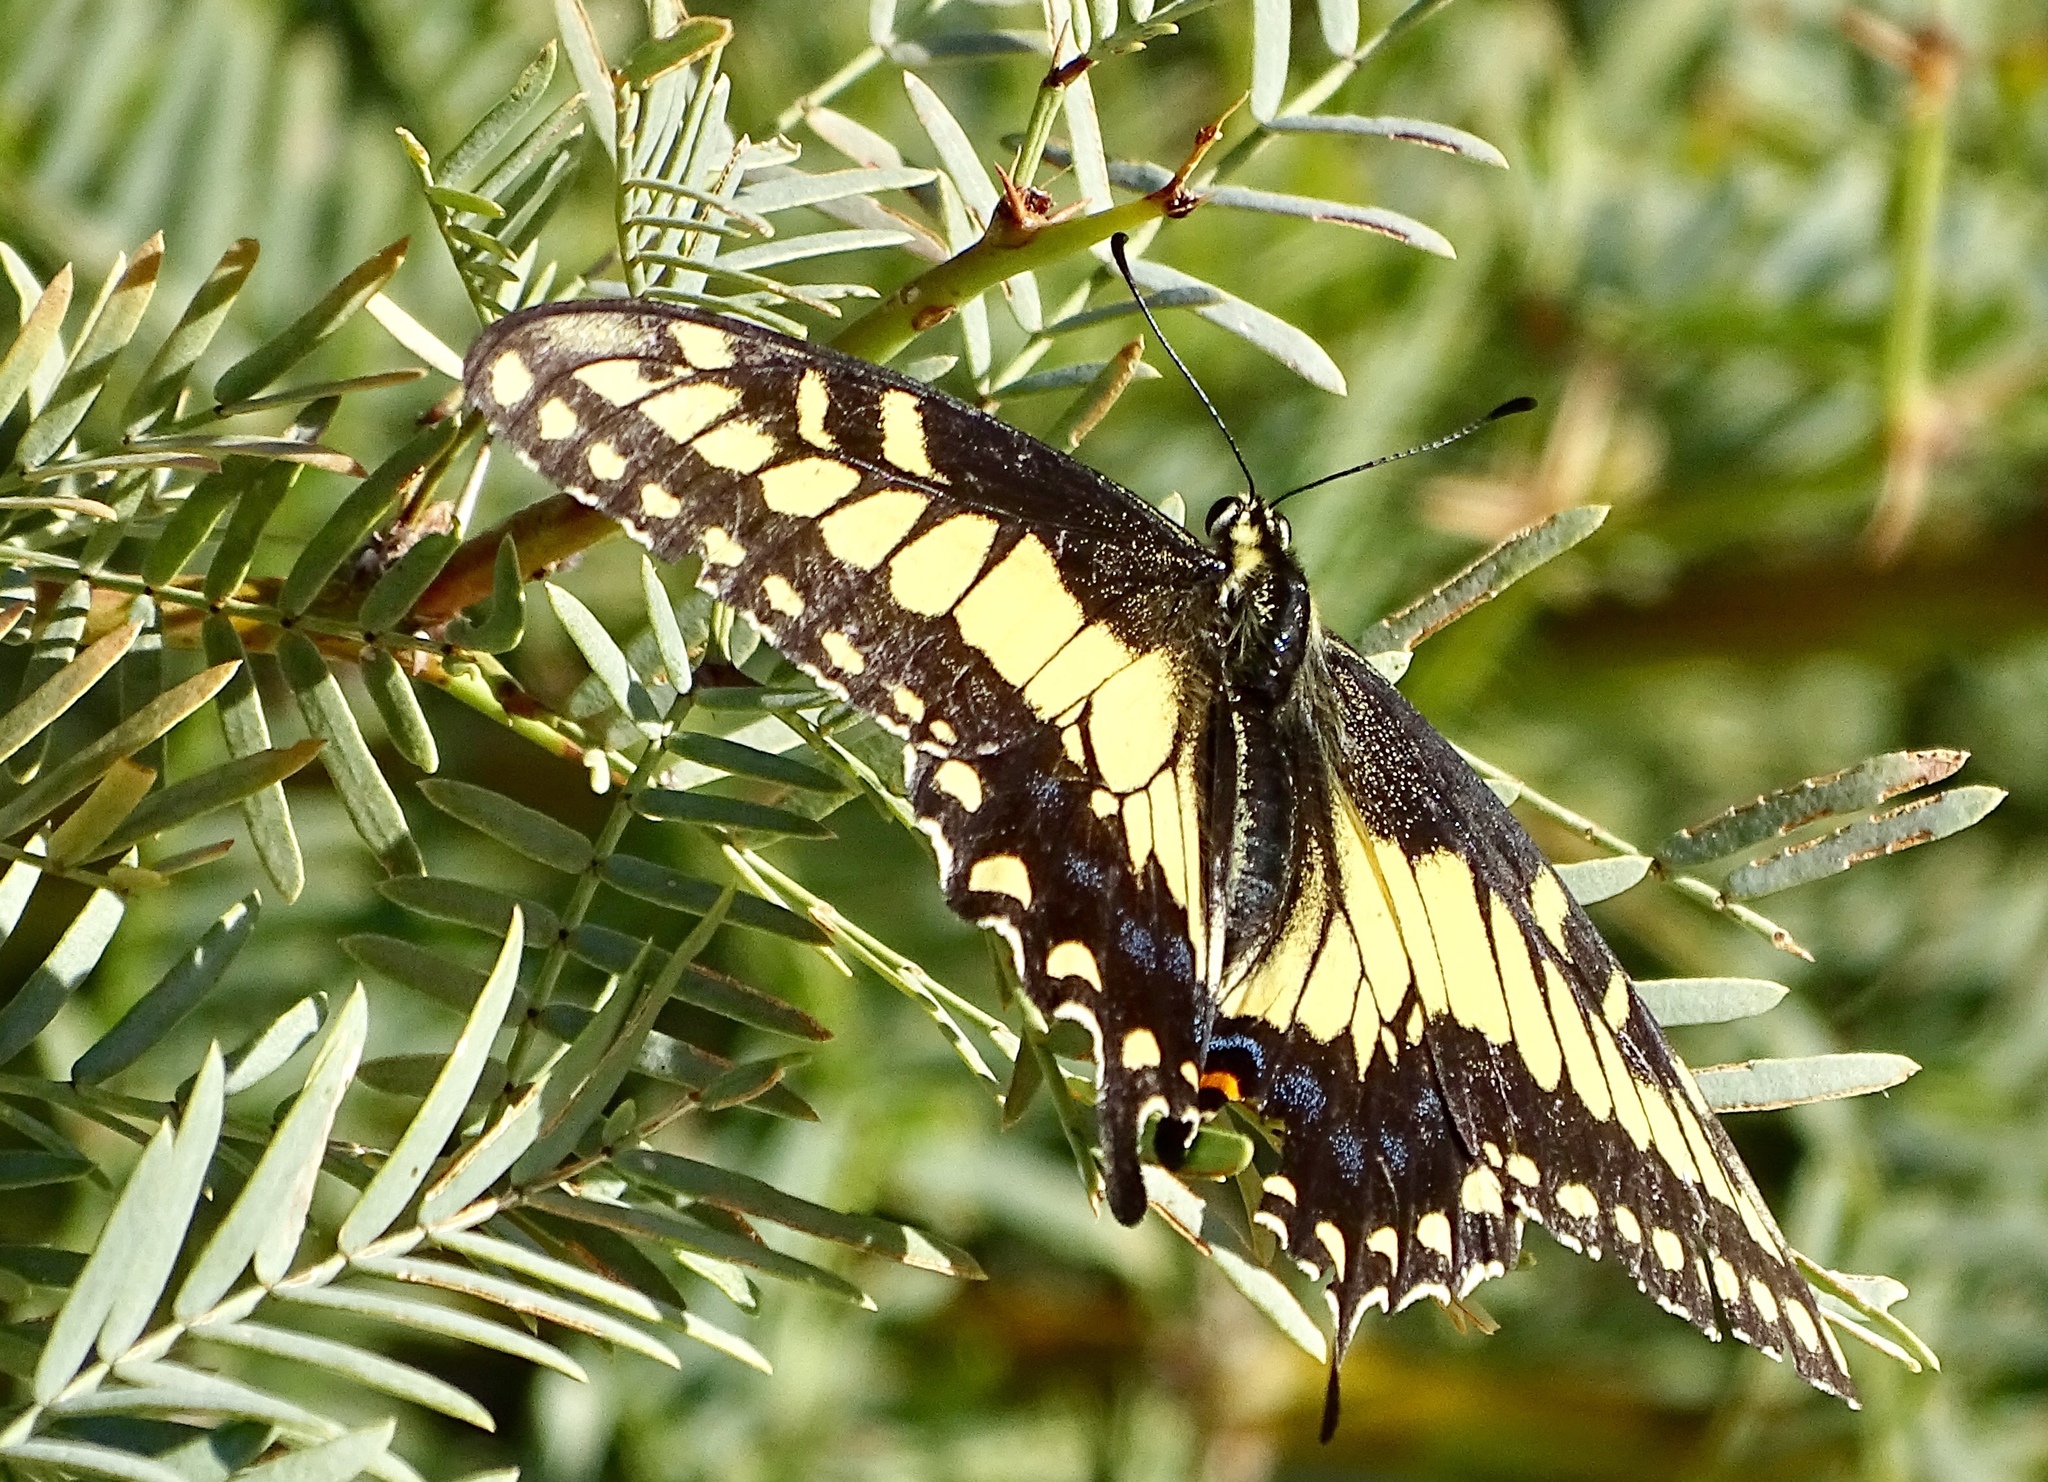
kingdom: Animalia
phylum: Arthropoda
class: Insecta
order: Lepidoptera
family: Papilionidae
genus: Papilio
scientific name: Papilio polyxenes
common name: Black swallowtail
